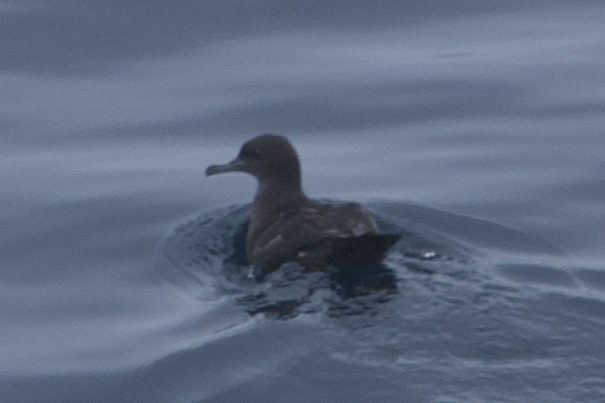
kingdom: Animalia
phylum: Chordata
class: Aves
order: Procellariiformes
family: Procellariidae
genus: Puffinus
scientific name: Puffinus griseus
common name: Sooty shearwater
